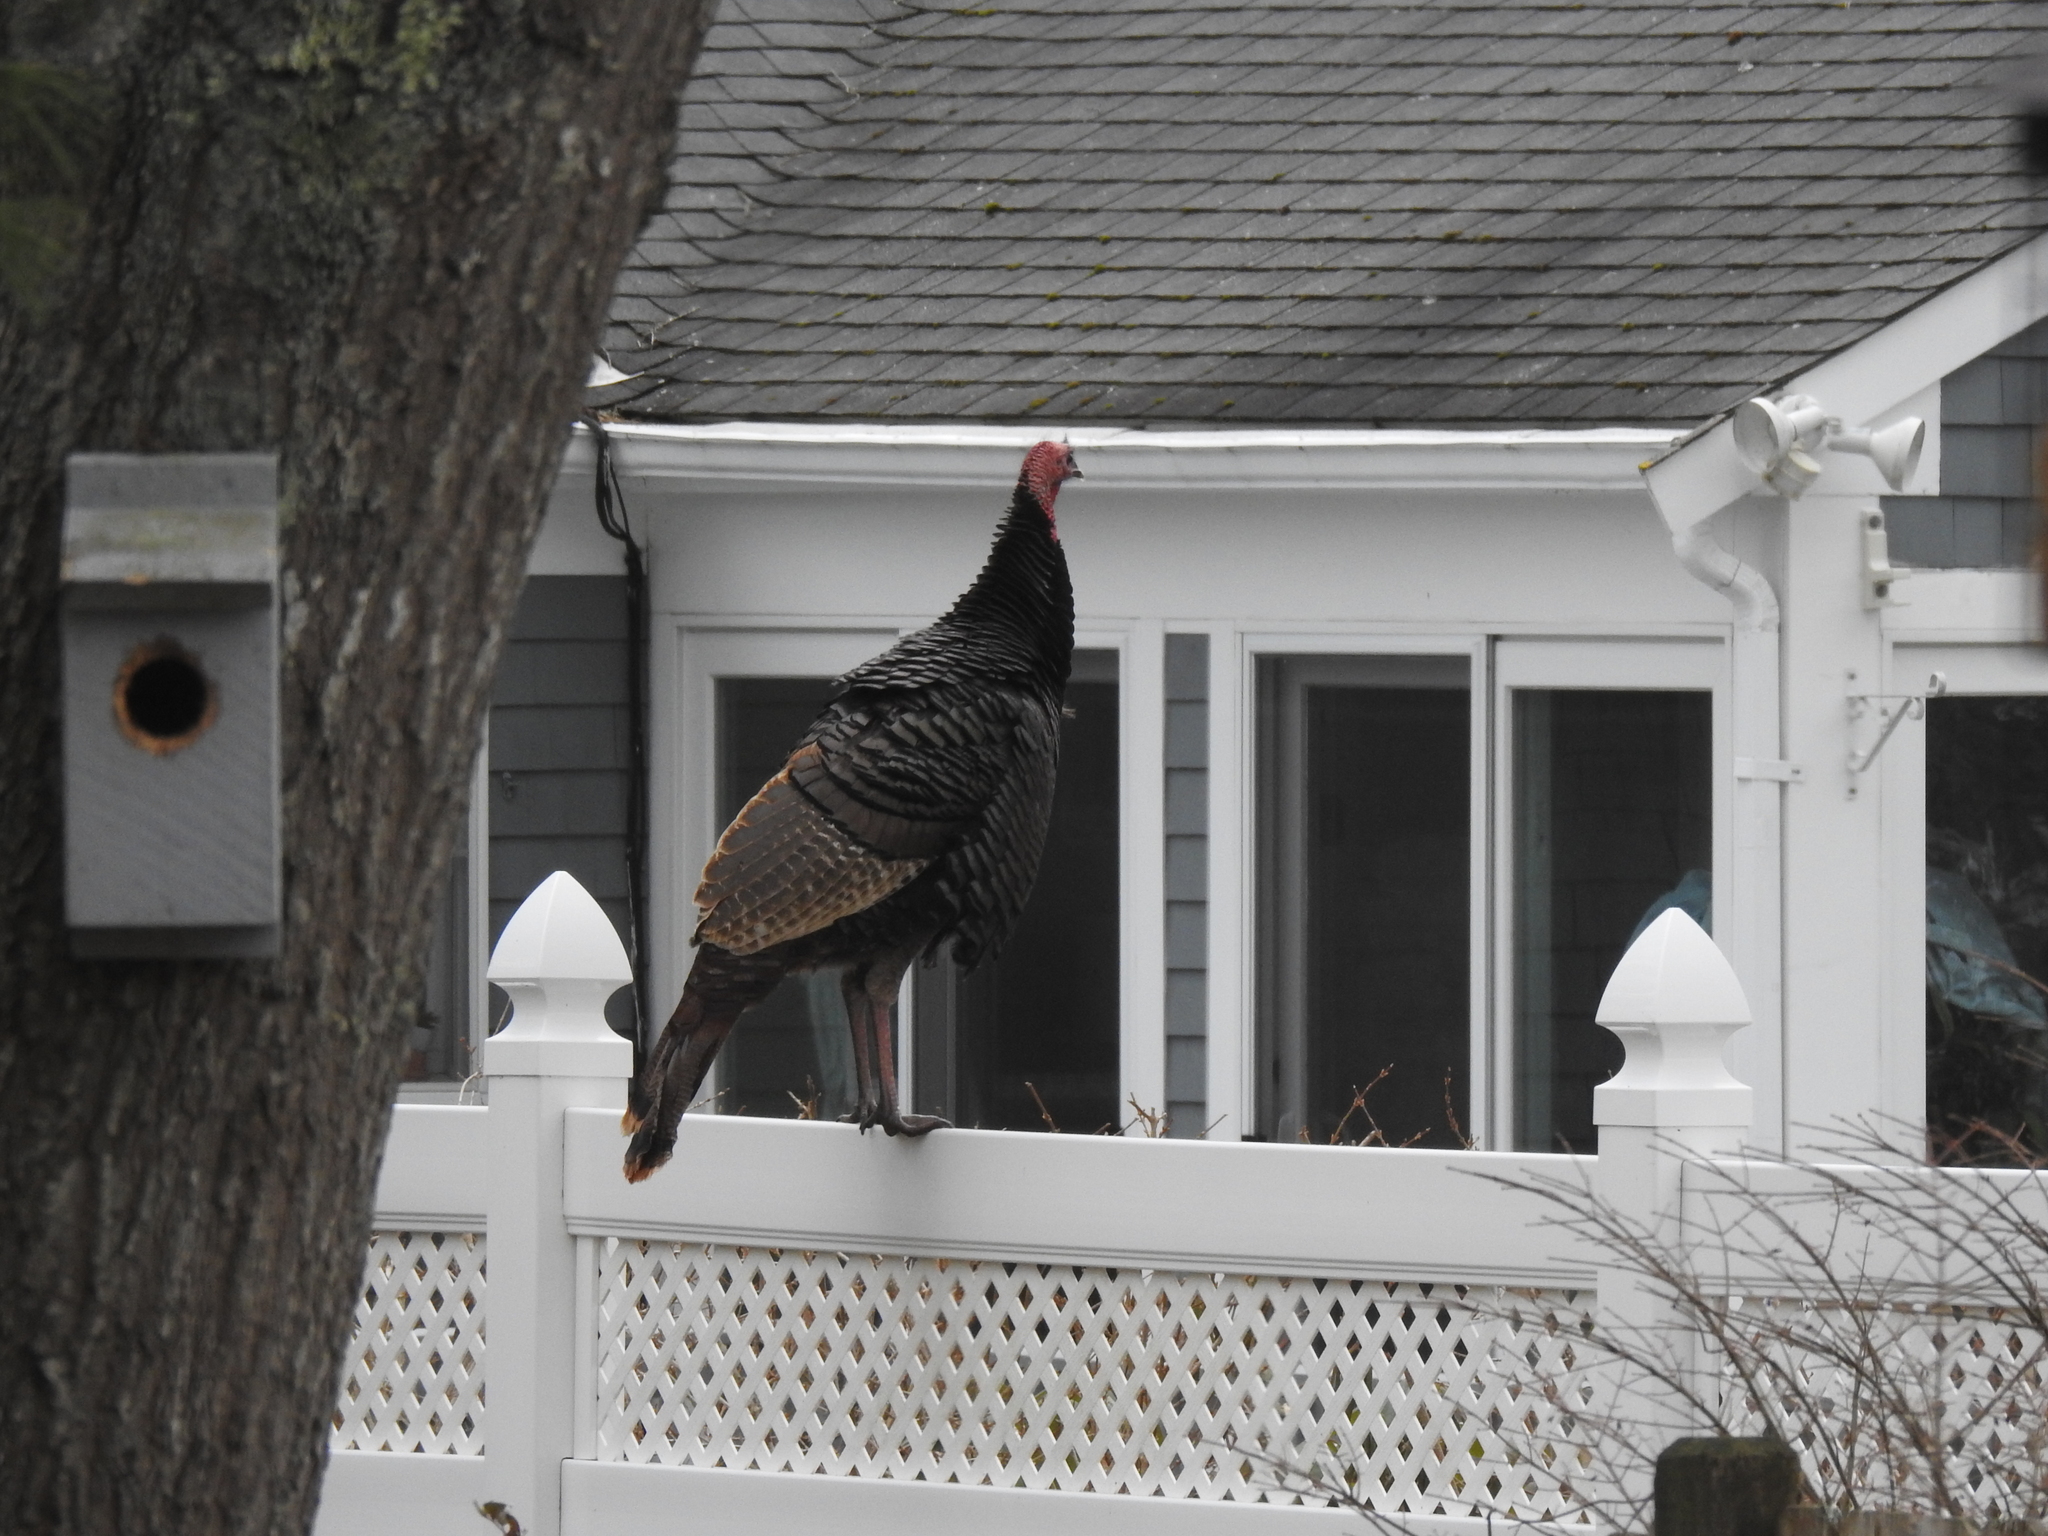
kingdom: Animalia
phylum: Chordata
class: Aves
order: Galliformes
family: Phasianidae
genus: Meleagris
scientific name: Meleagris gallopavo
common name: Wild turkey
